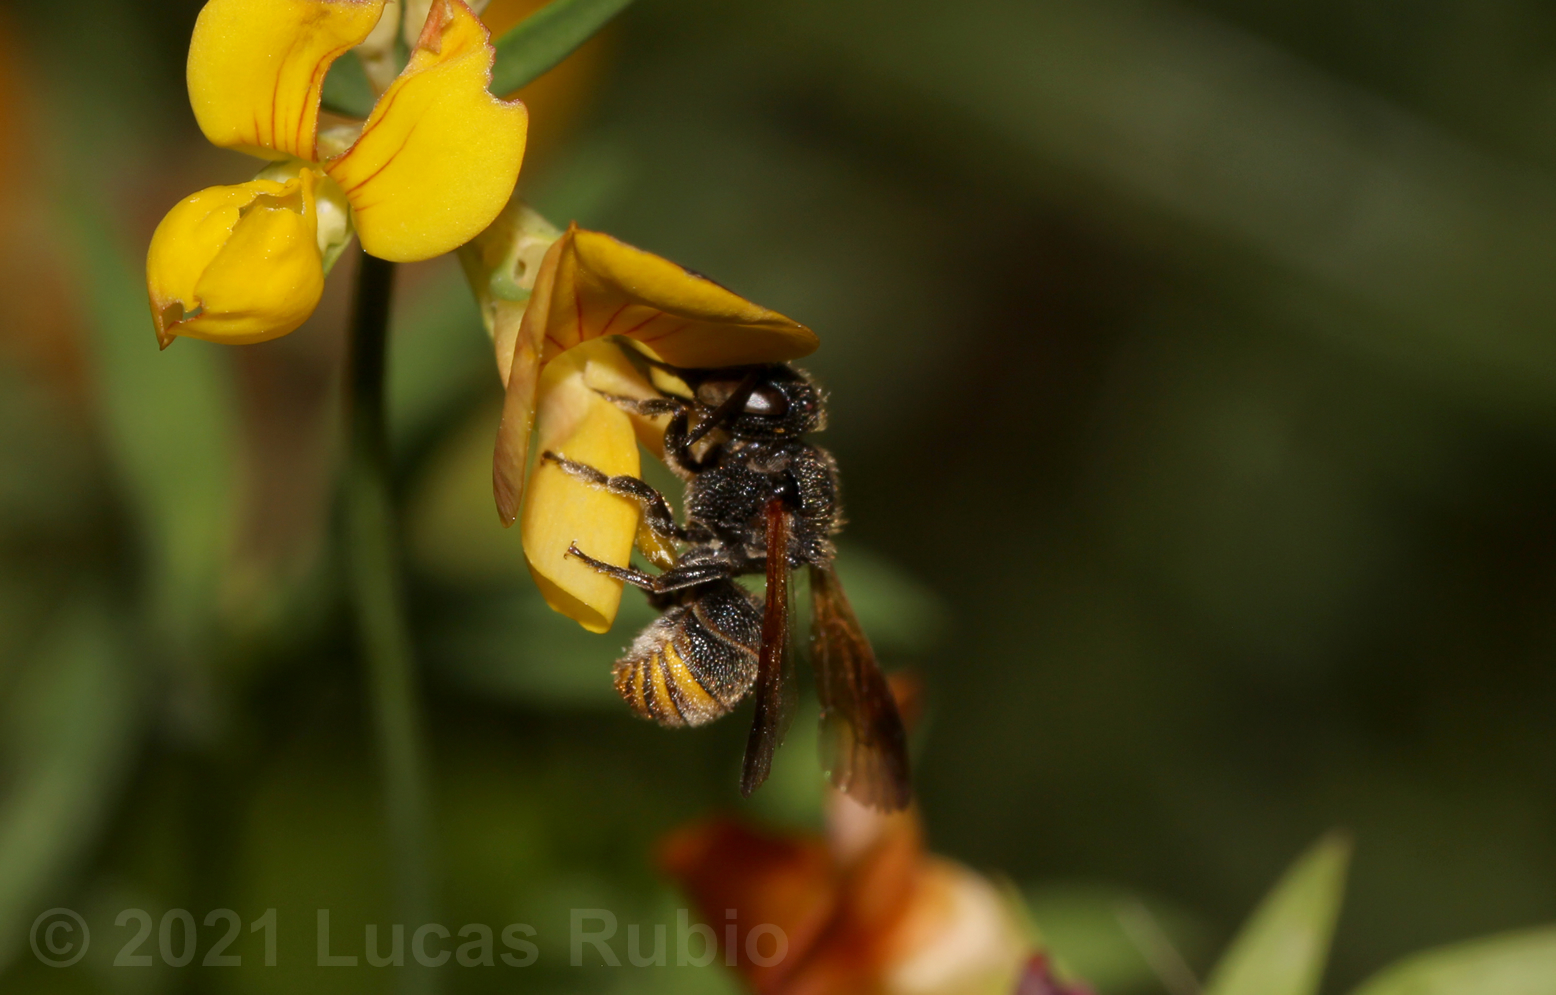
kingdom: Animalia
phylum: Arthropoda
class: Insecta
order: Hymenoptera
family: Megachilidae
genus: Anthodioctes
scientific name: Anthodioctes megachiloides
